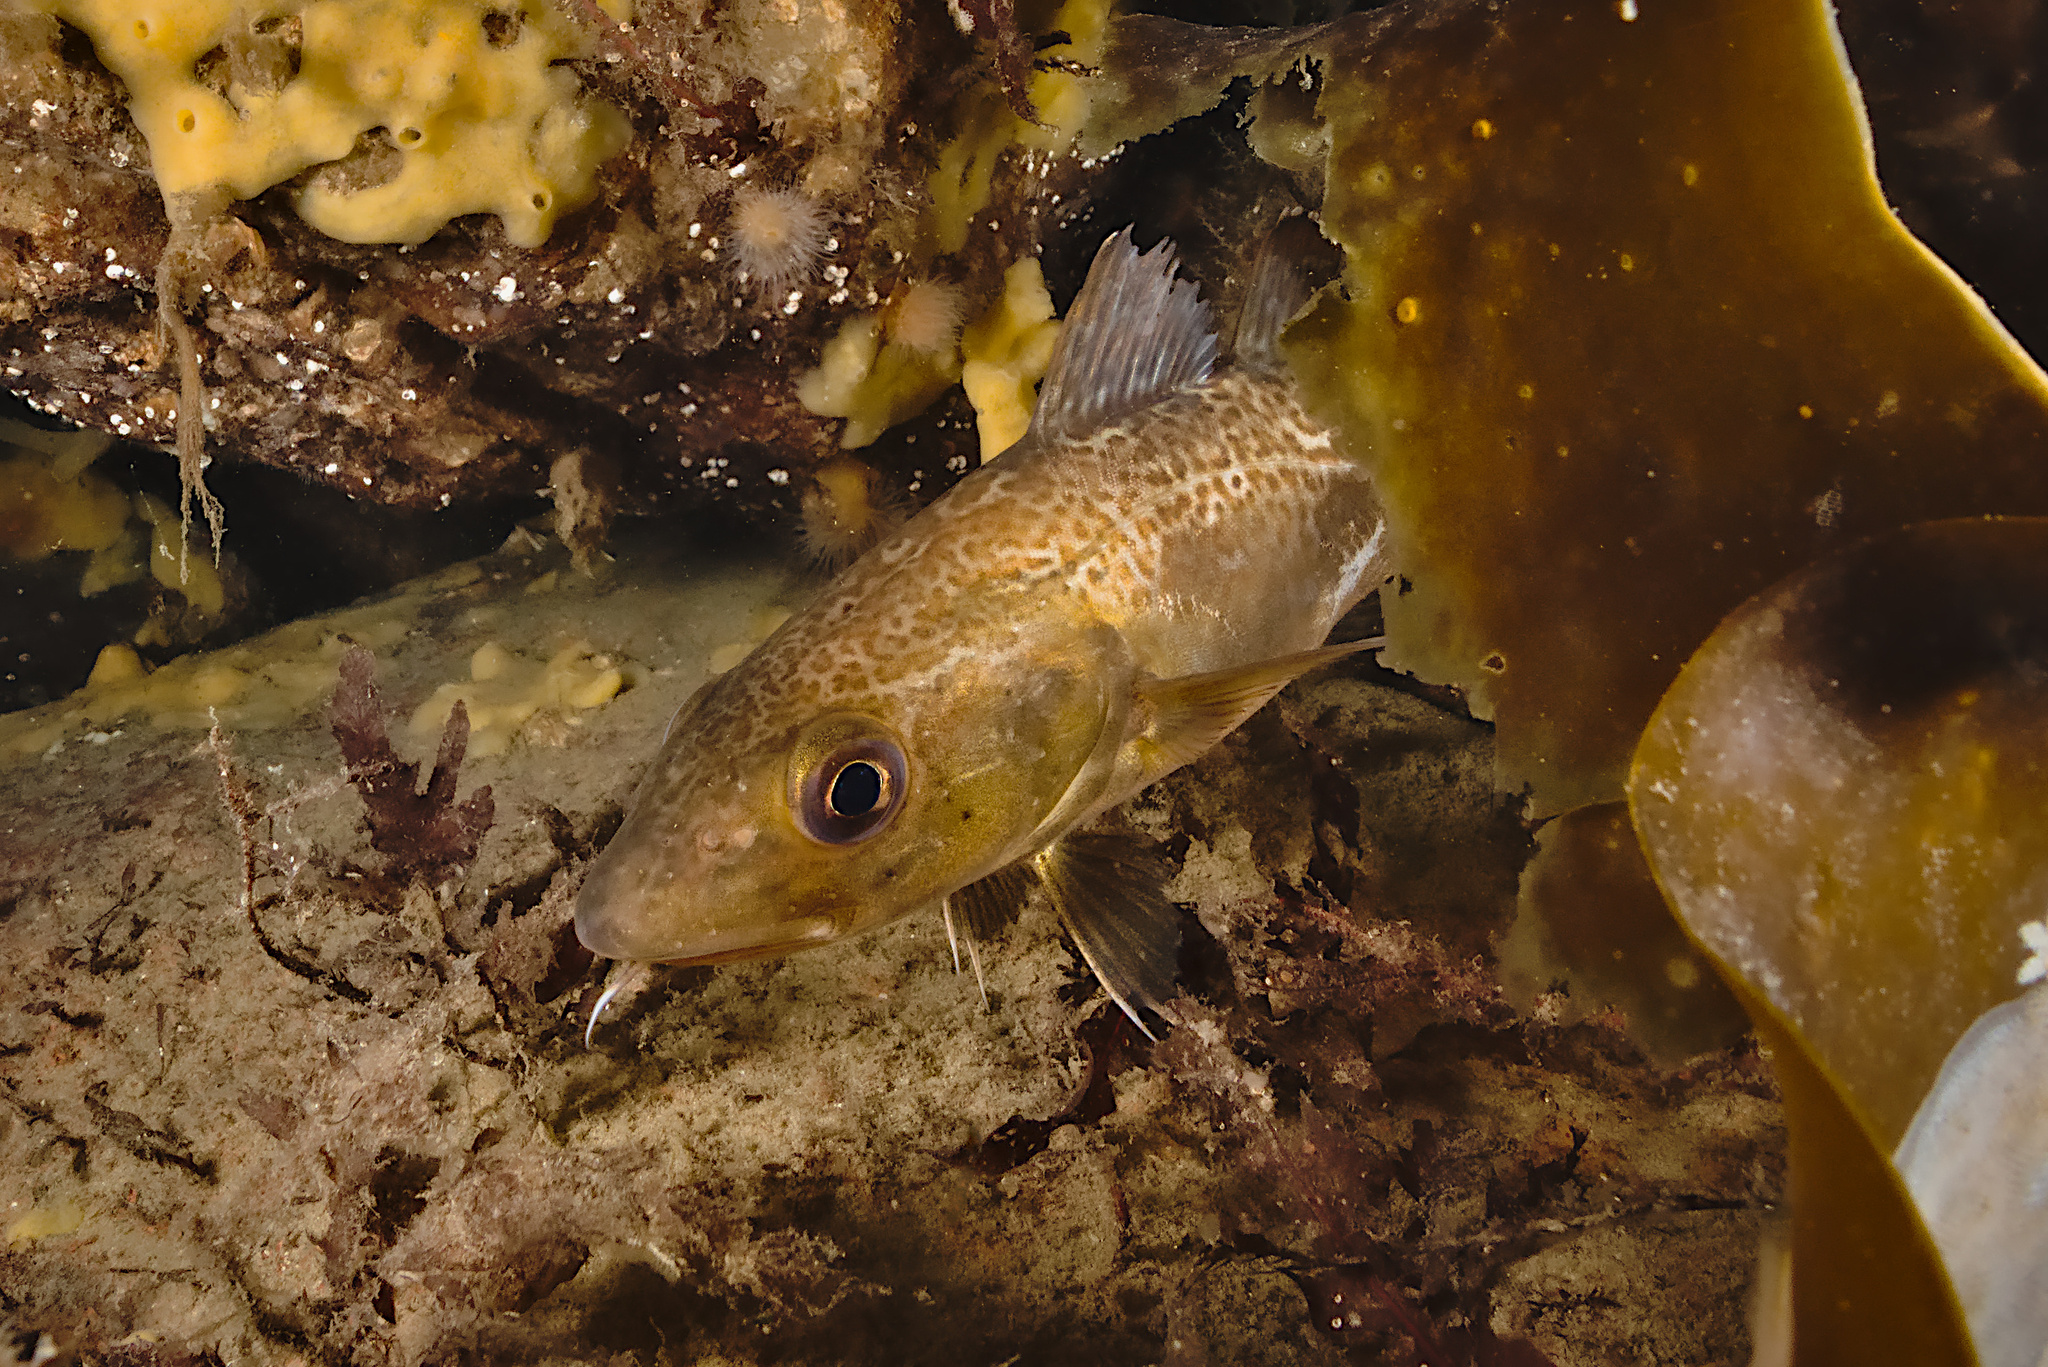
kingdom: Animalia
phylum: Chordata
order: Gadiformes
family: Gadidae
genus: Gadus
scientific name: Gadus morhua
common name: Atlantic cod
